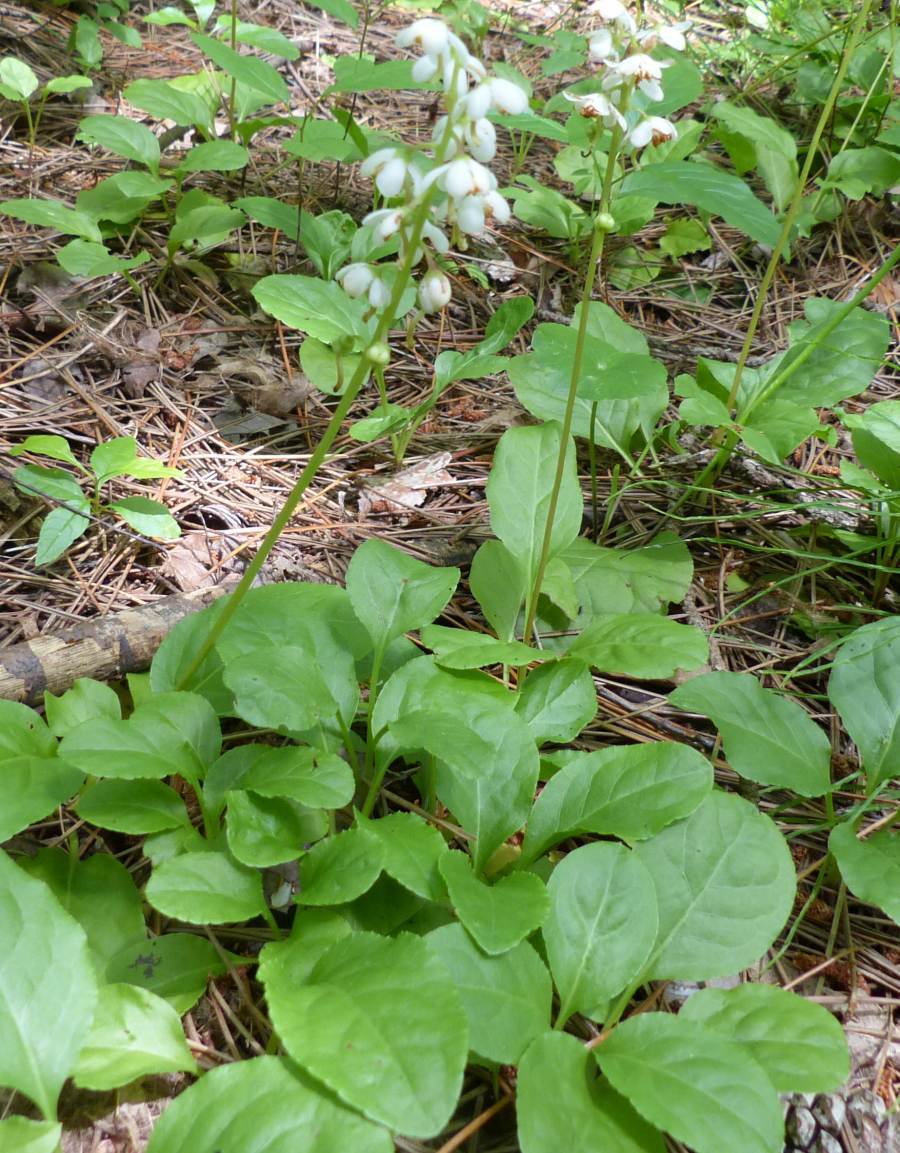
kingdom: Plantae
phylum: Tracheophyta
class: Magnoliopsida
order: Ericales
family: Ericaceae
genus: Pyrola
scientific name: Pyrola elliptica
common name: Shinleaf
